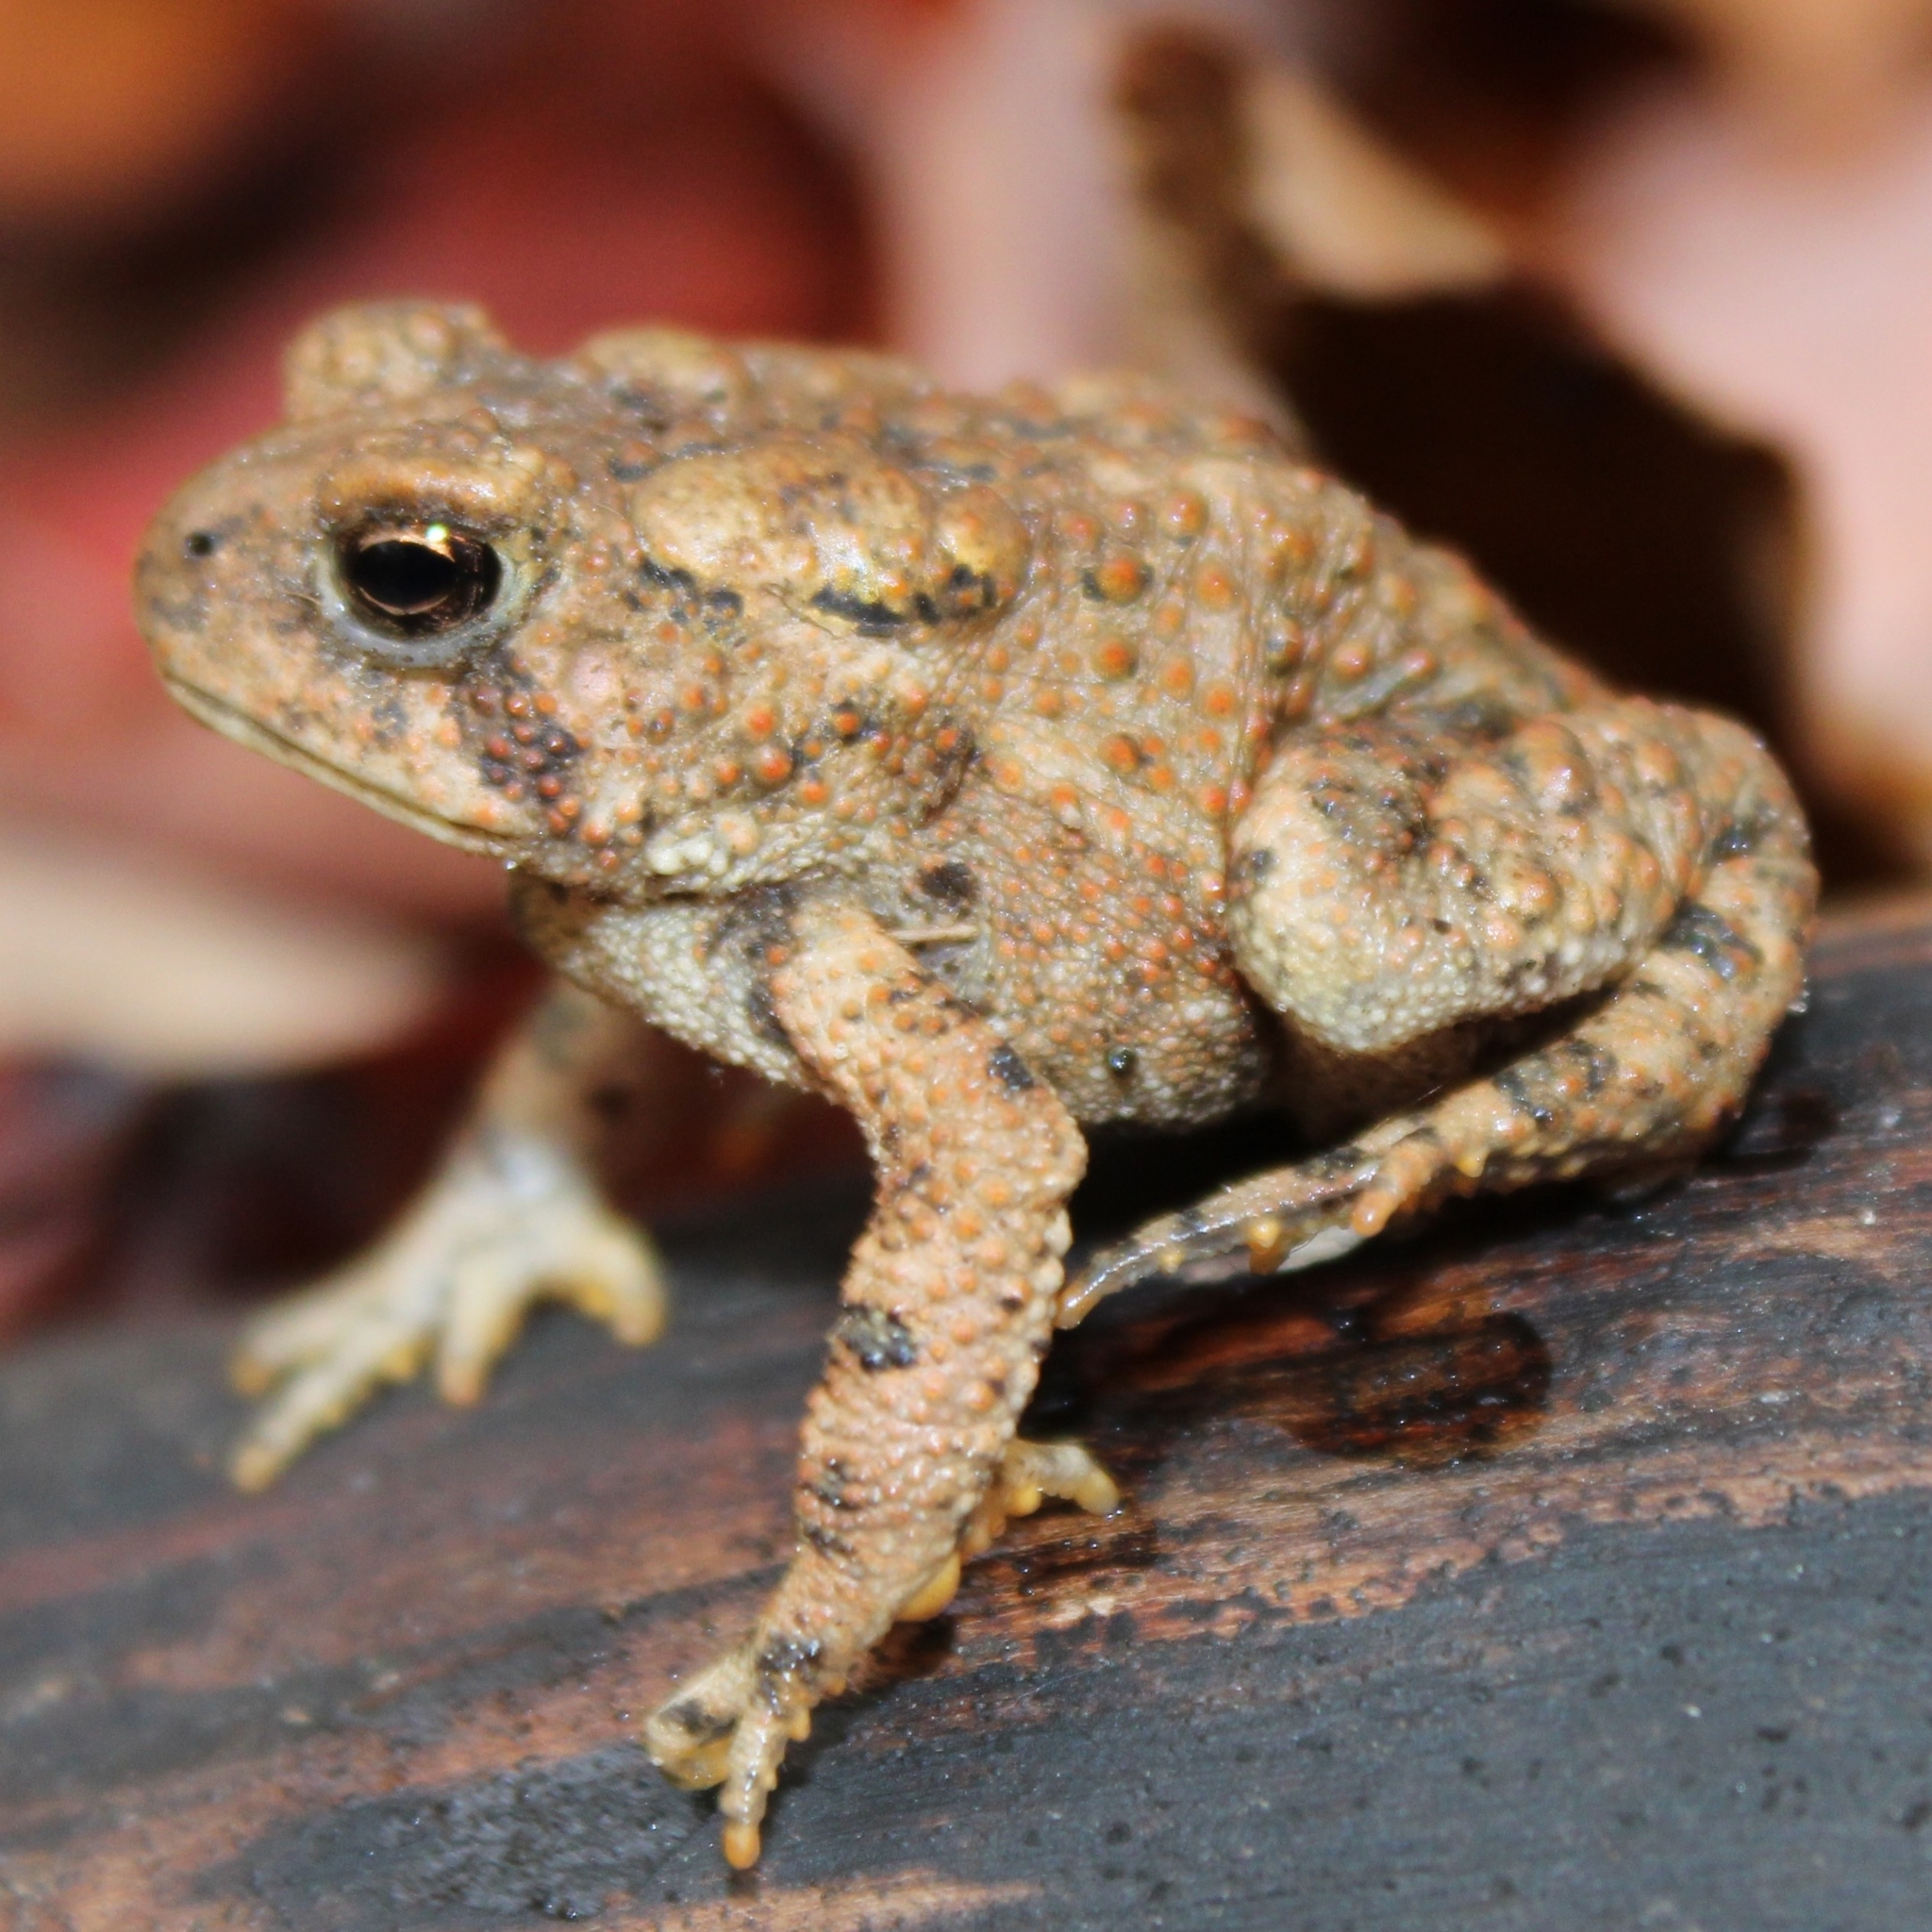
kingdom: Animalia
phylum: Chordata
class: Amphibia
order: Anura
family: Bufonidae
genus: Anaxyrus
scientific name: Anaxyrus americanus
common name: American toad
